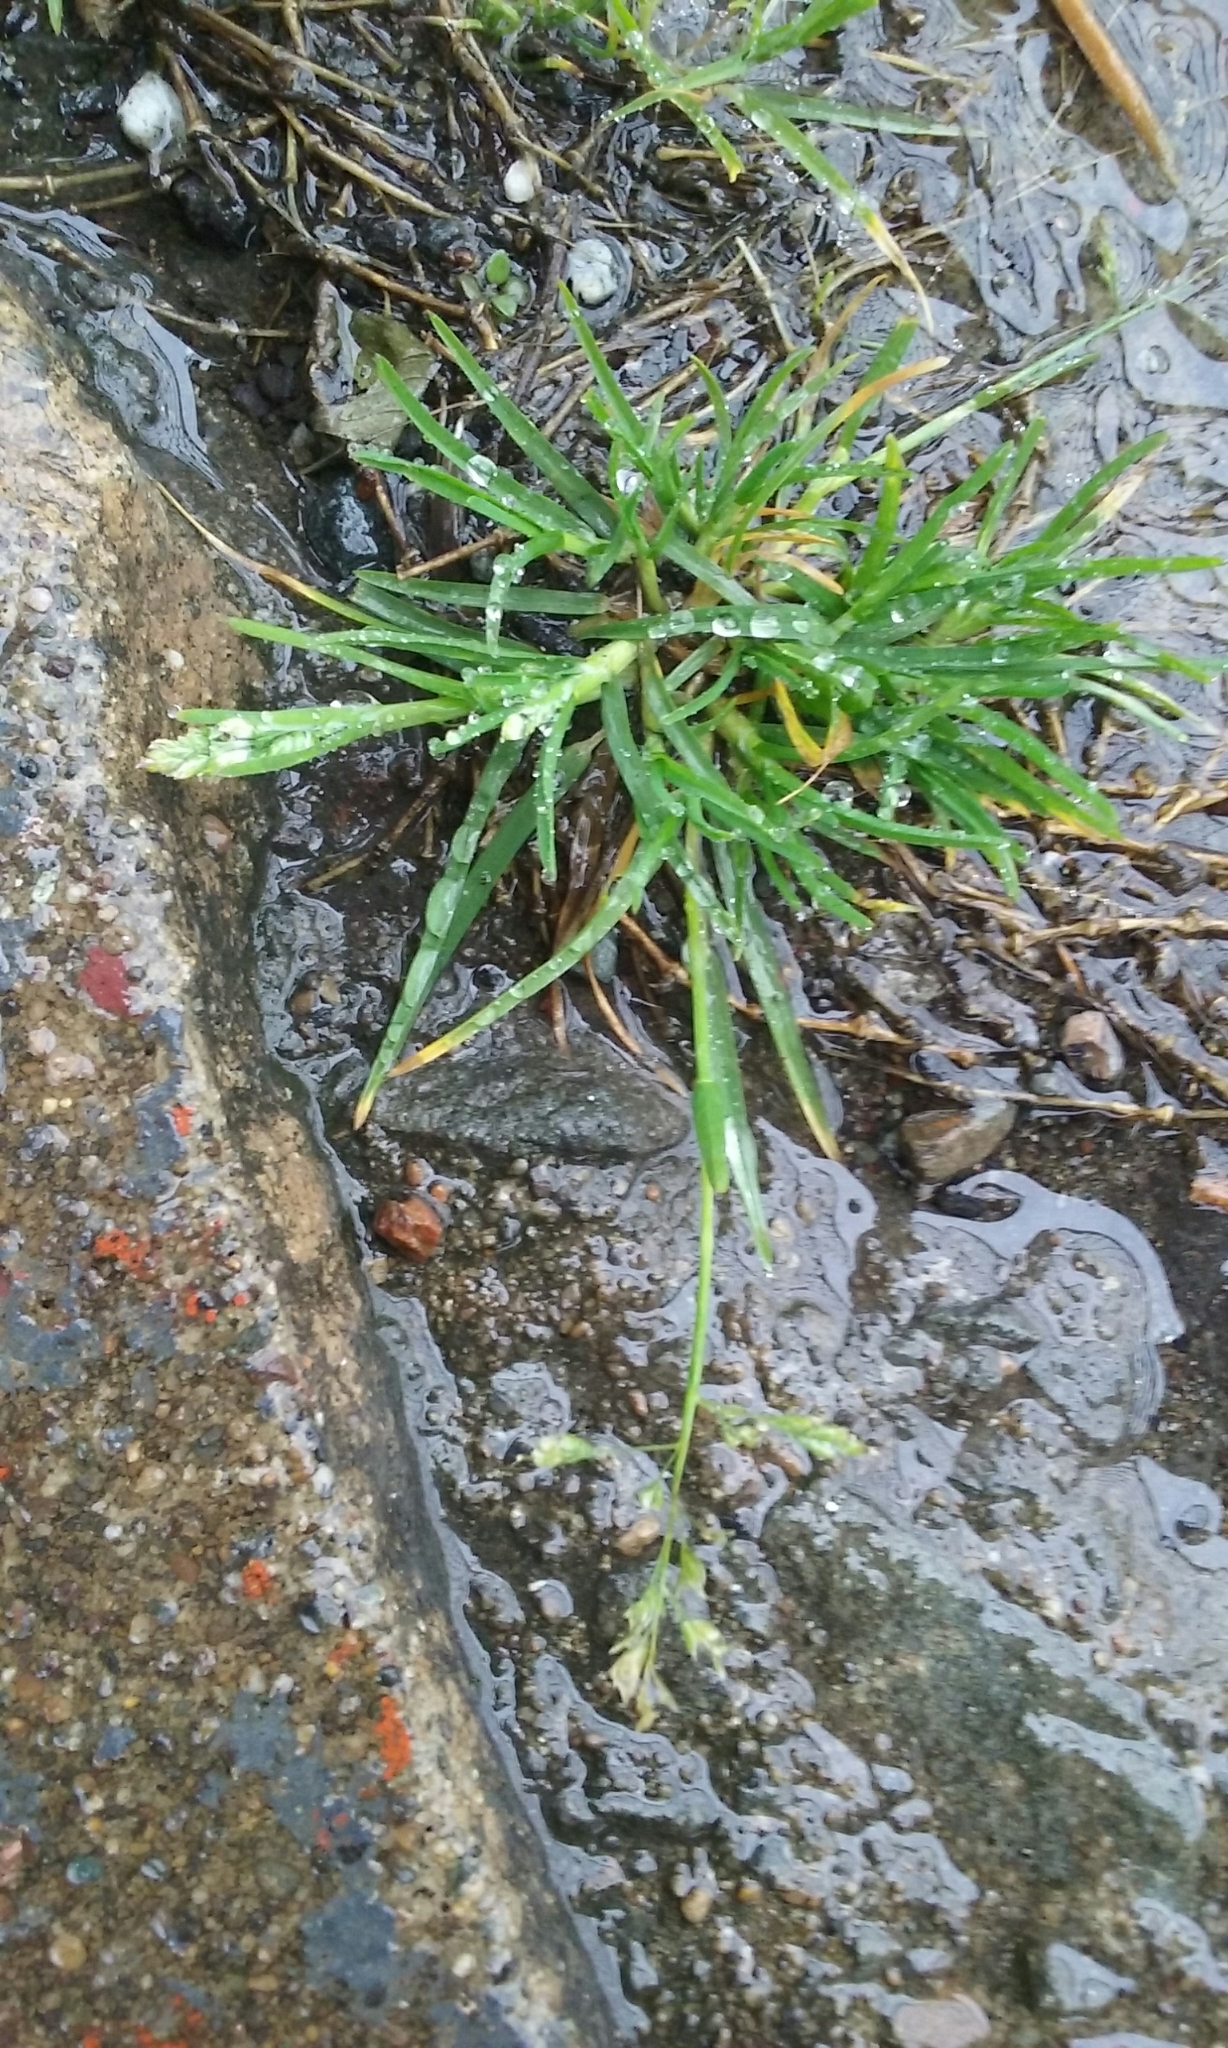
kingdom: Plantae
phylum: Tracheophyta
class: Liliopsida
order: Poales
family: Poaceae
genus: Poa
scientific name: Poa annua
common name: Annual bluegrass
